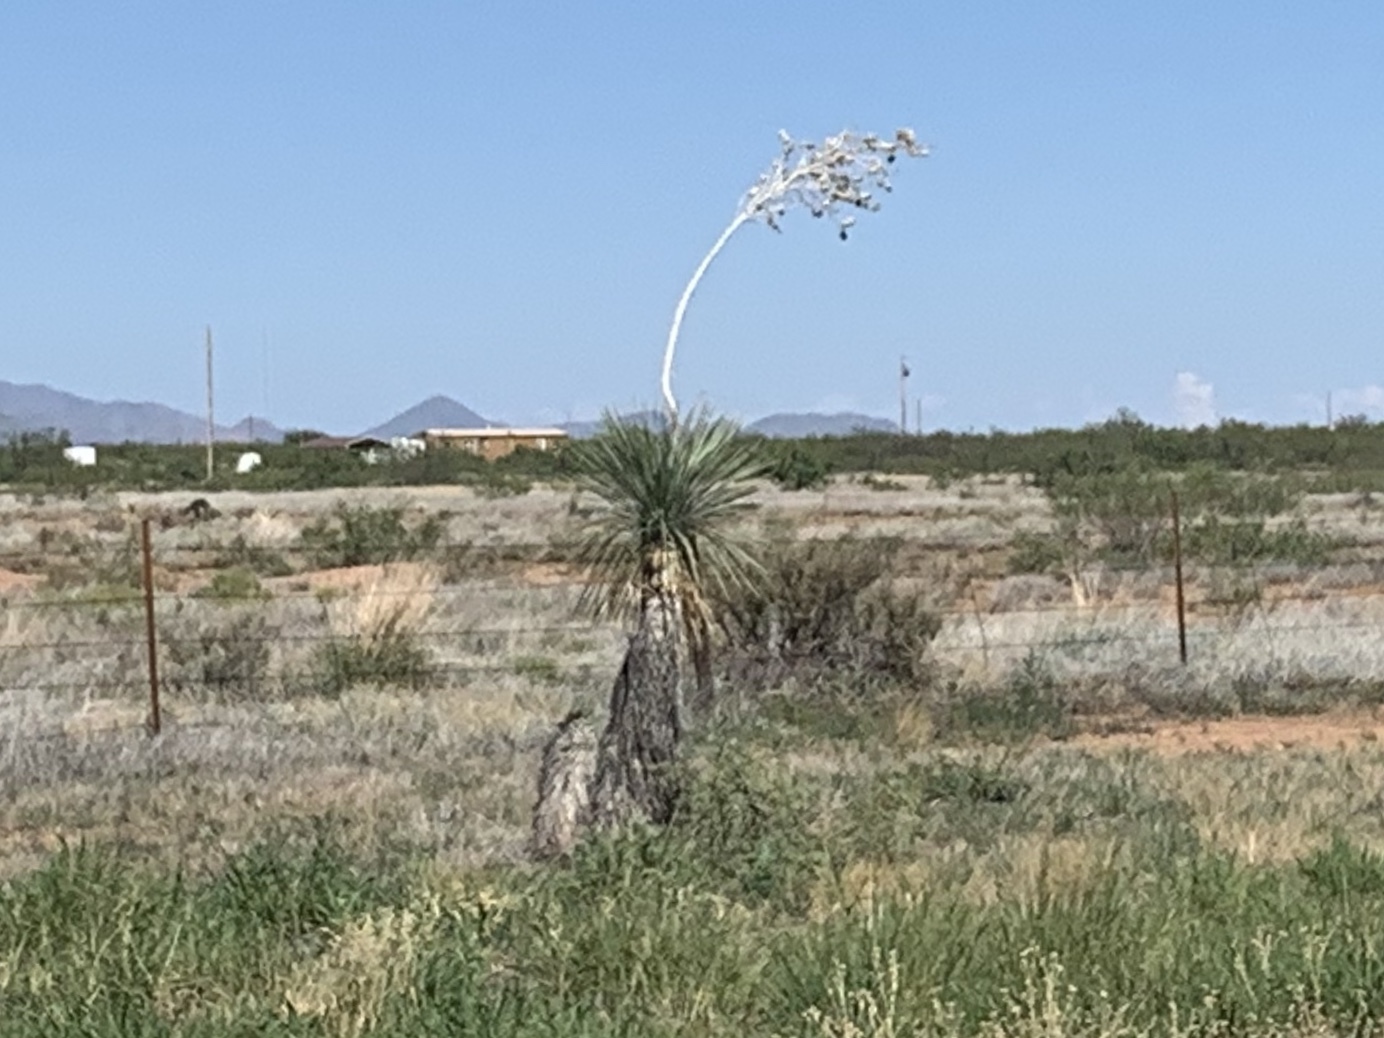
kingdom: Plantae
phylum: Tracheophyta
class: Liliopsida
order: Asparagales
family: Asparagaceae
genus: Yucca
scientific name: Yucca elata
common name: Palmella
